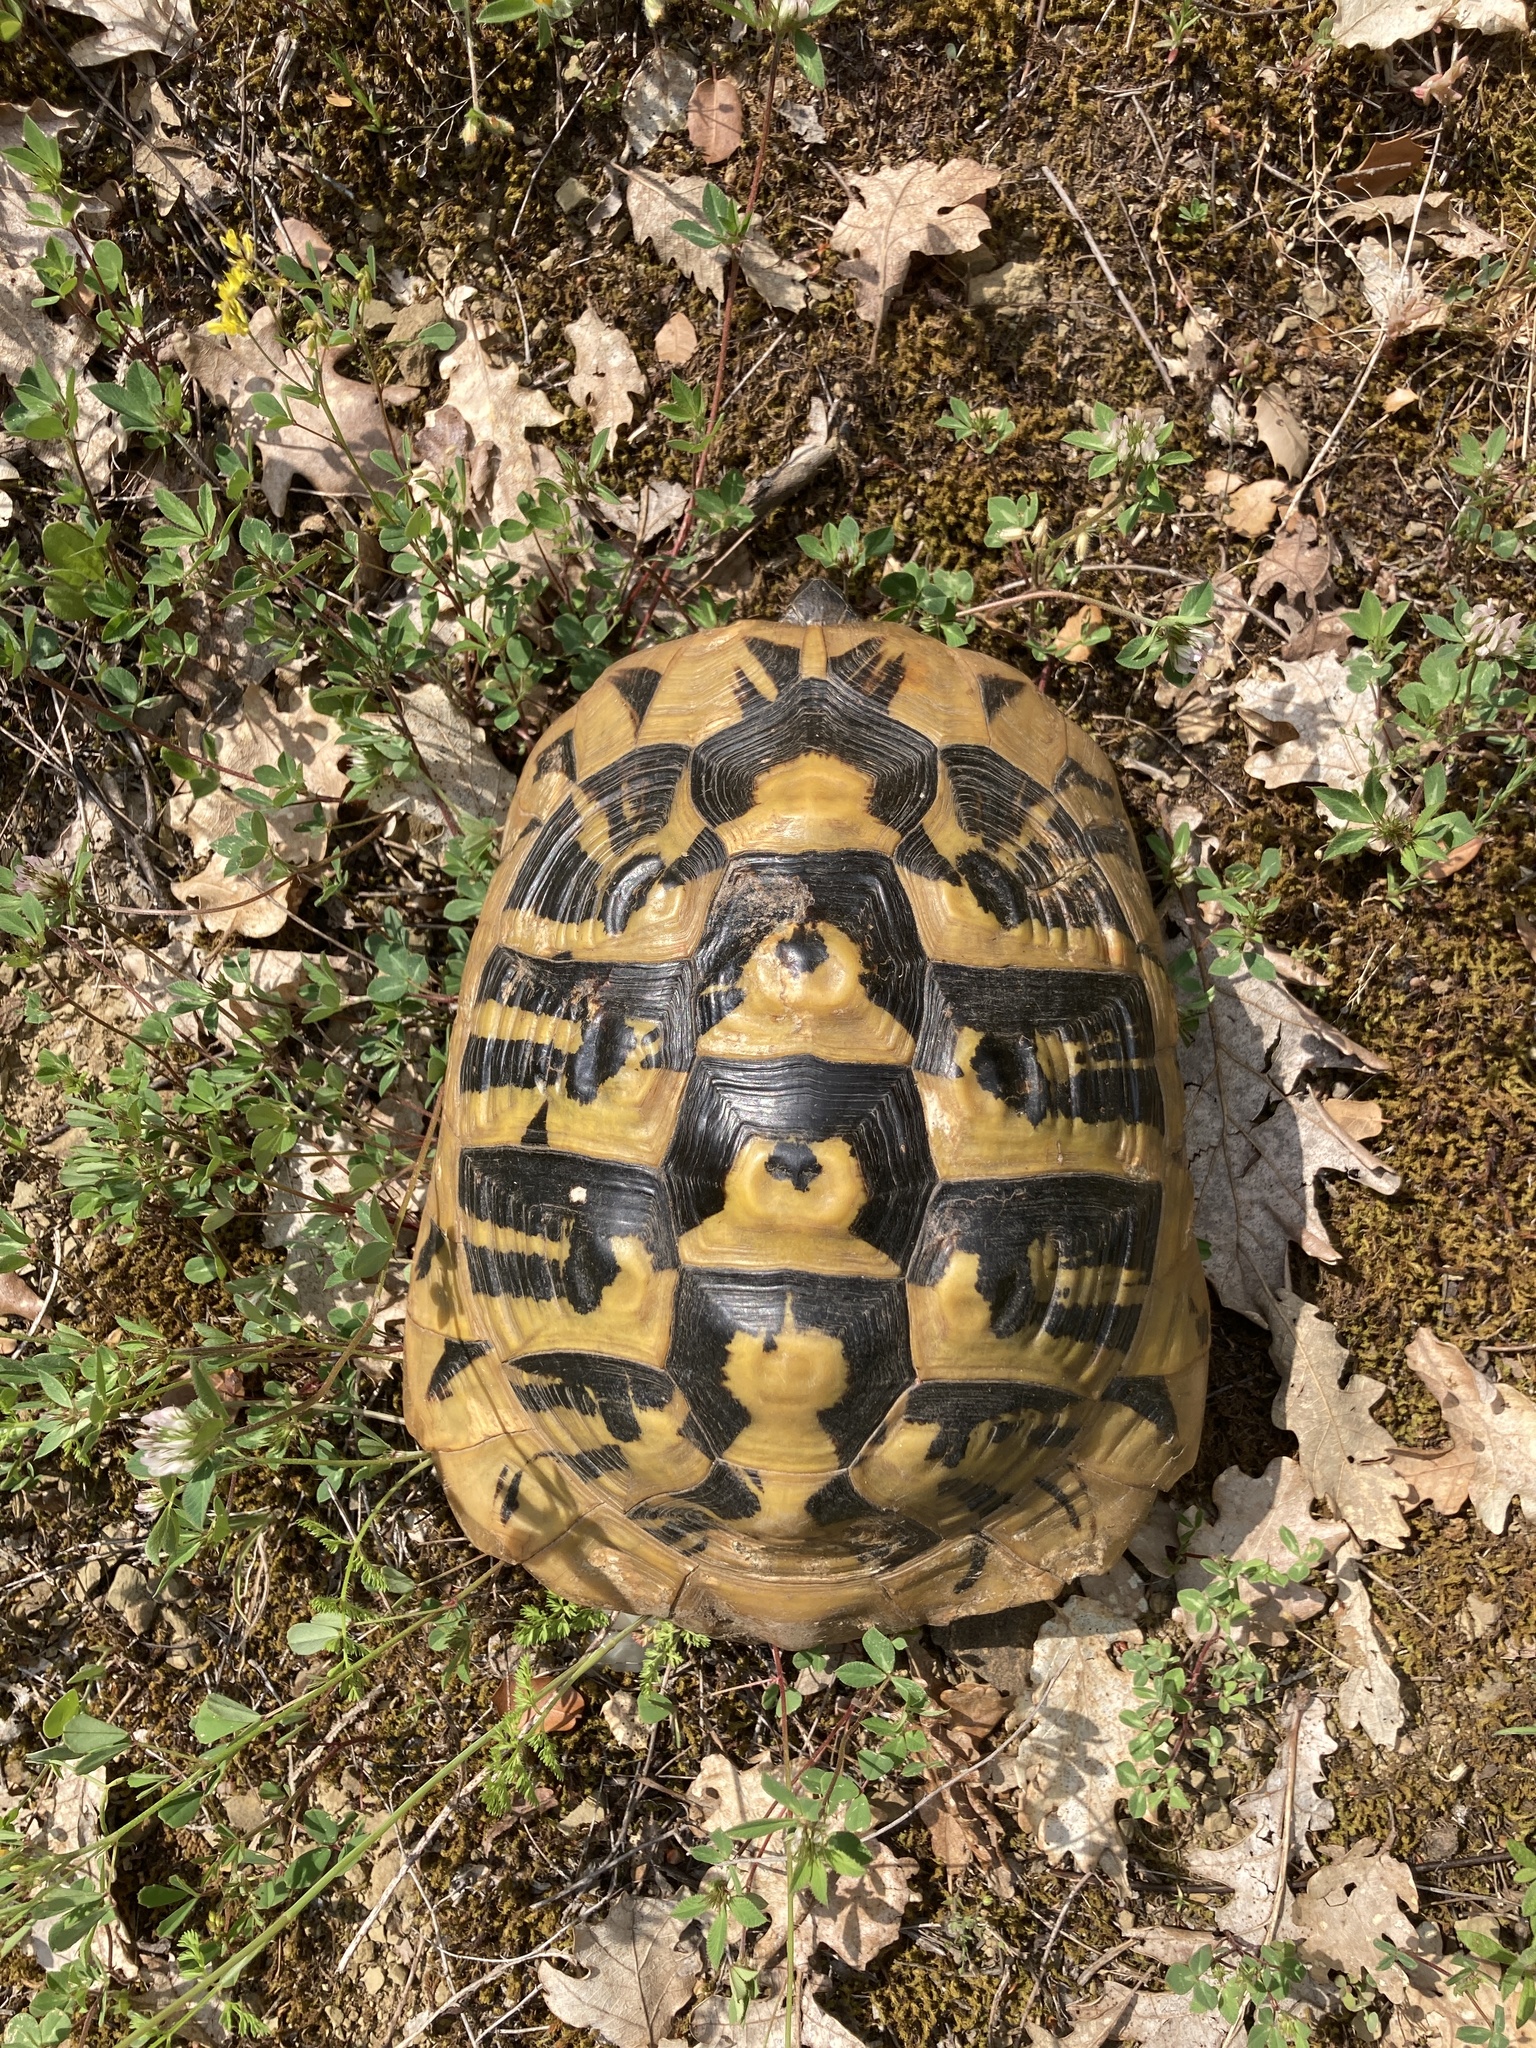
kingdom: Animalia
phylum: Chordata
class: Testudines
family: Testudinidae
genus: Testudo
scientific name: Testudo hermanni
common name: Hermann's tortoise
